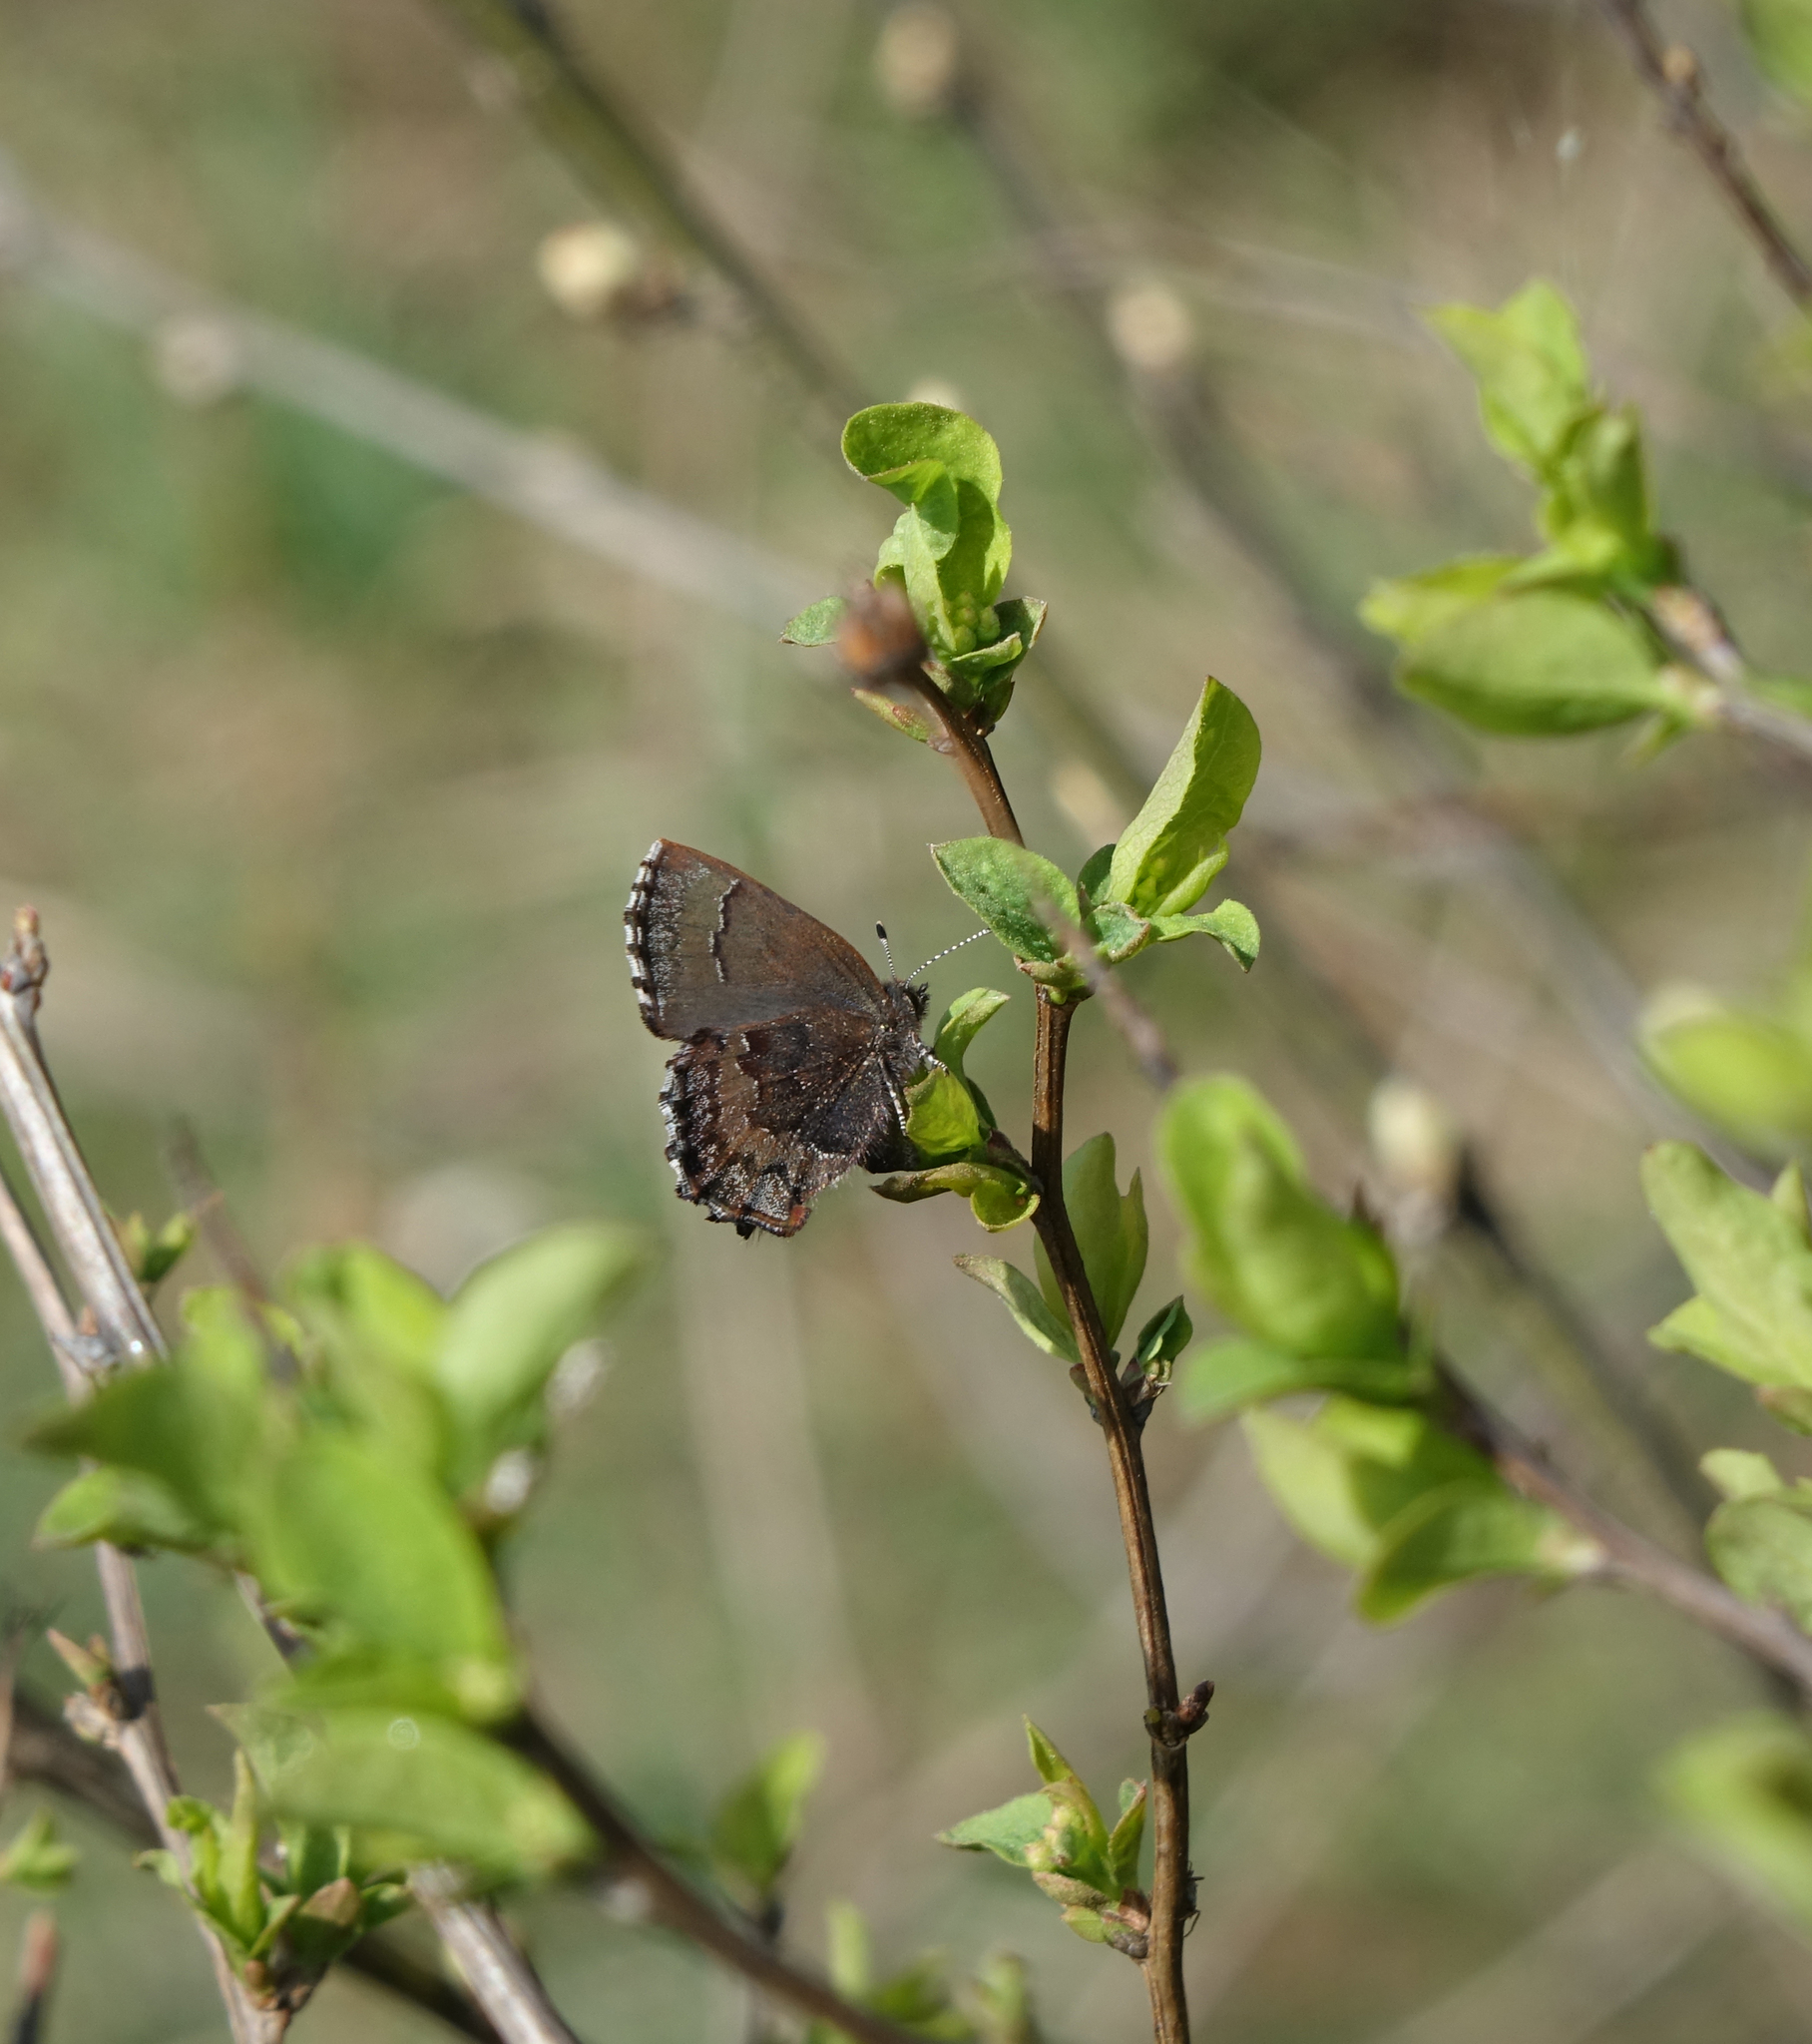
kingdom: Animalia
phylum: Arthropoda
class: Insecta
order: Lepidoptera
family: Lycaenidae
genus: Ginzia
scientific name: Ginzia Ahlbergia frivaldszkyi
